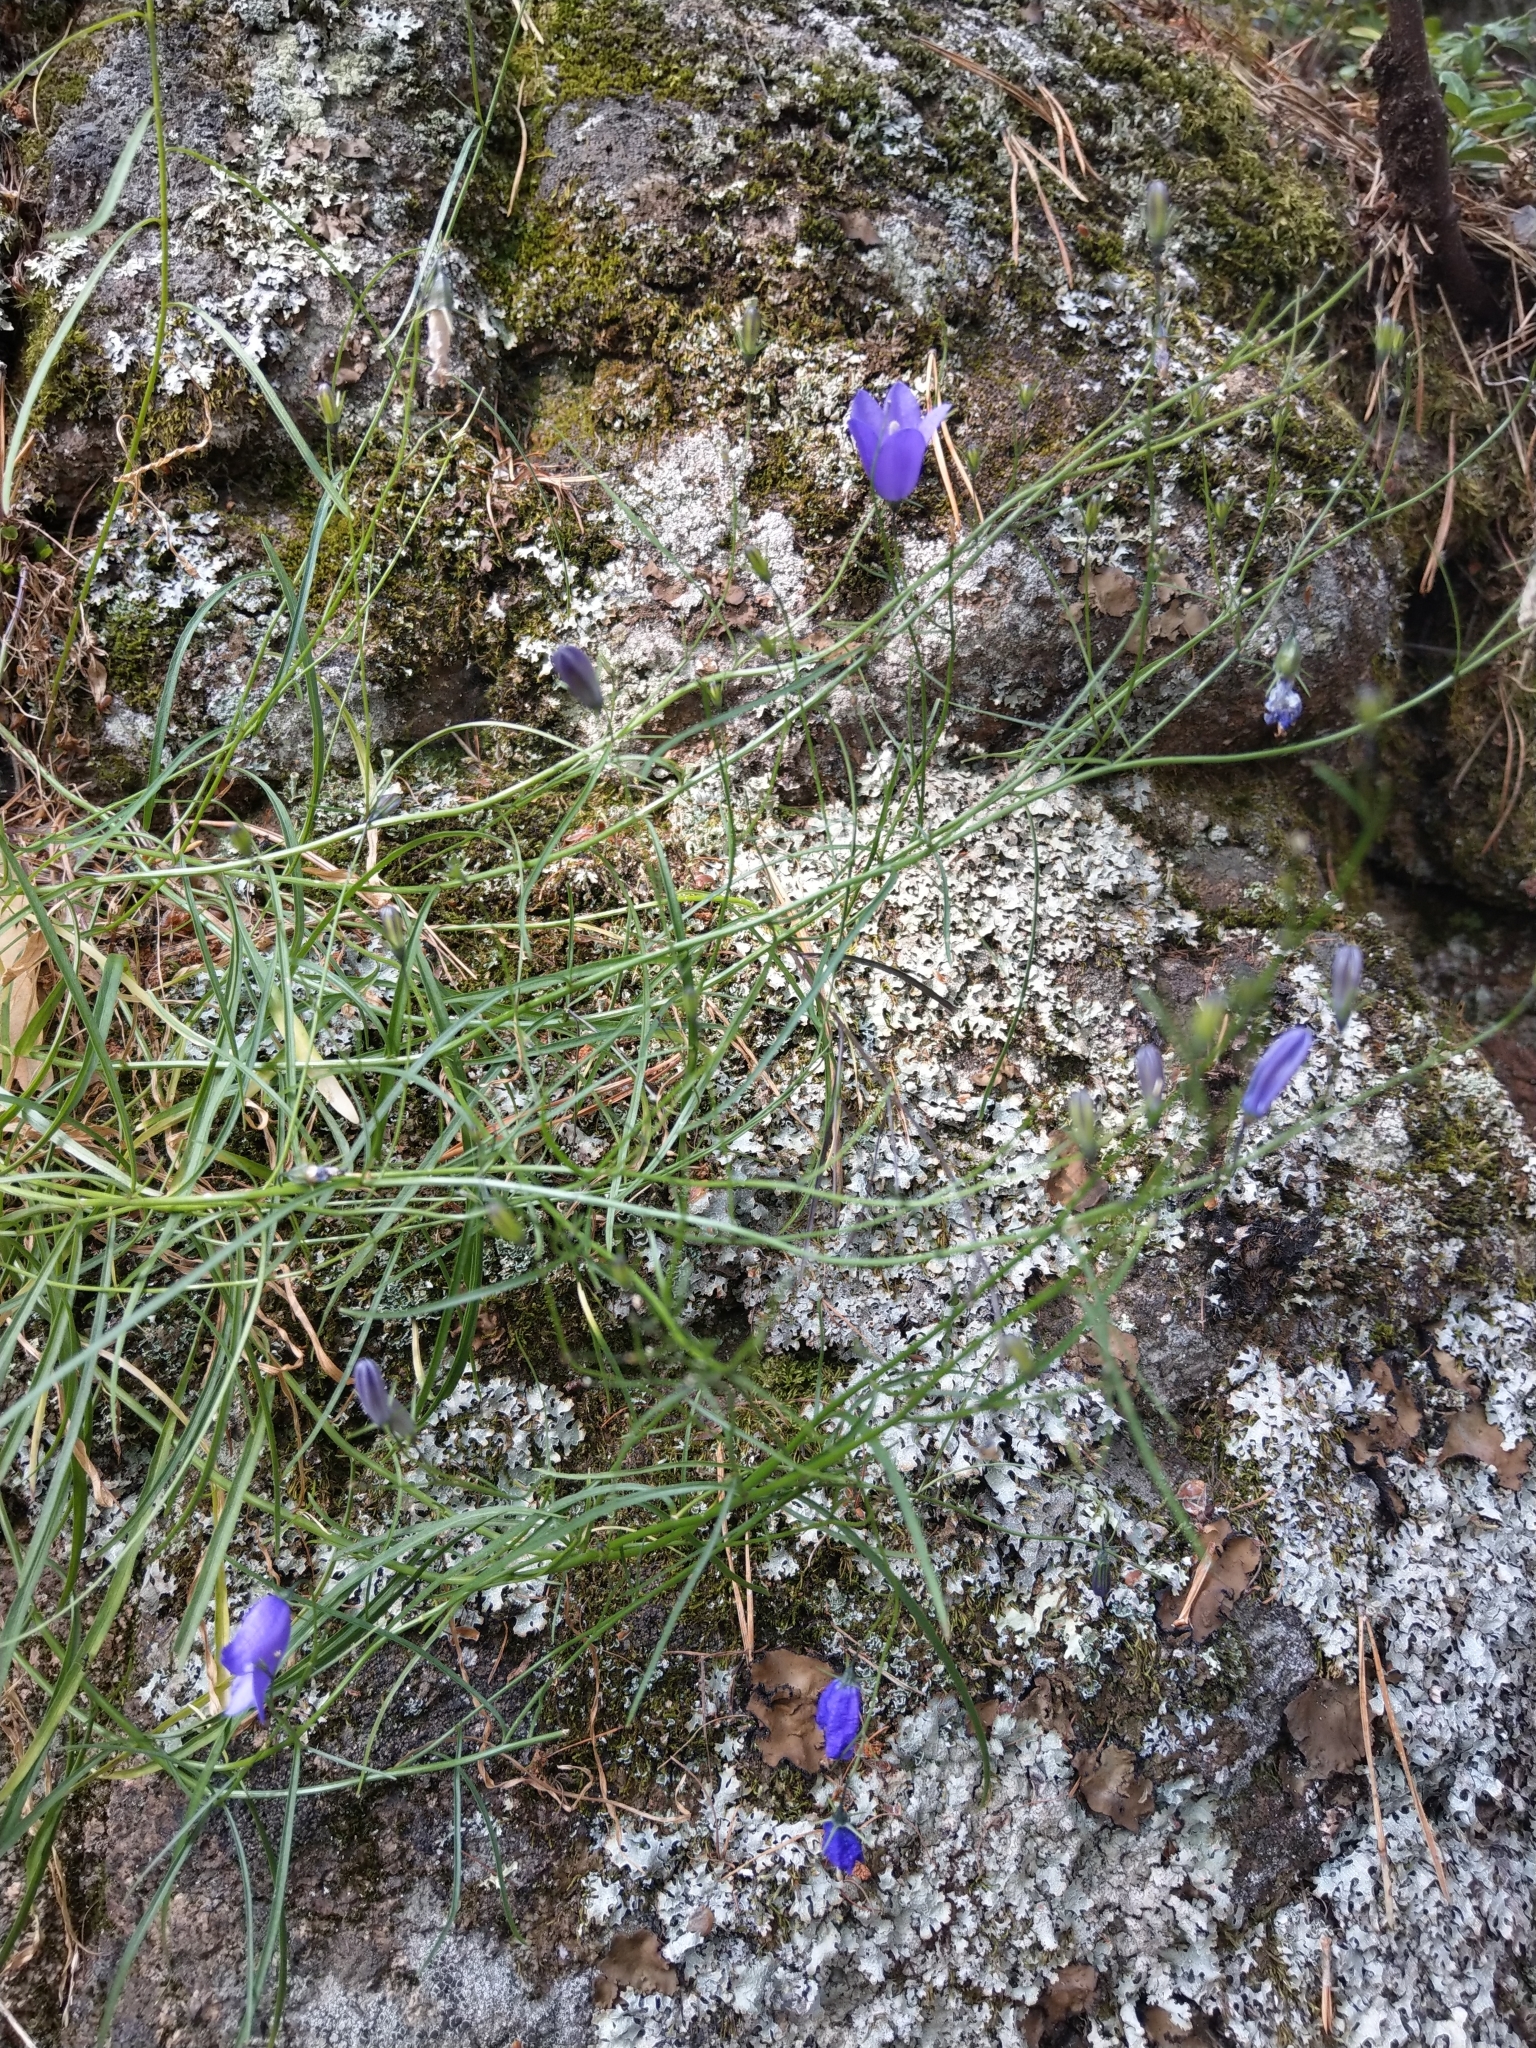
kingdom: Plantae
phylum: Tracheophyta
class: Magnoliopsida
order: Asterales
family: Campanulaceae
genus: Campanula
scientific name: Campanula rotundifolia
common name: Harebell
